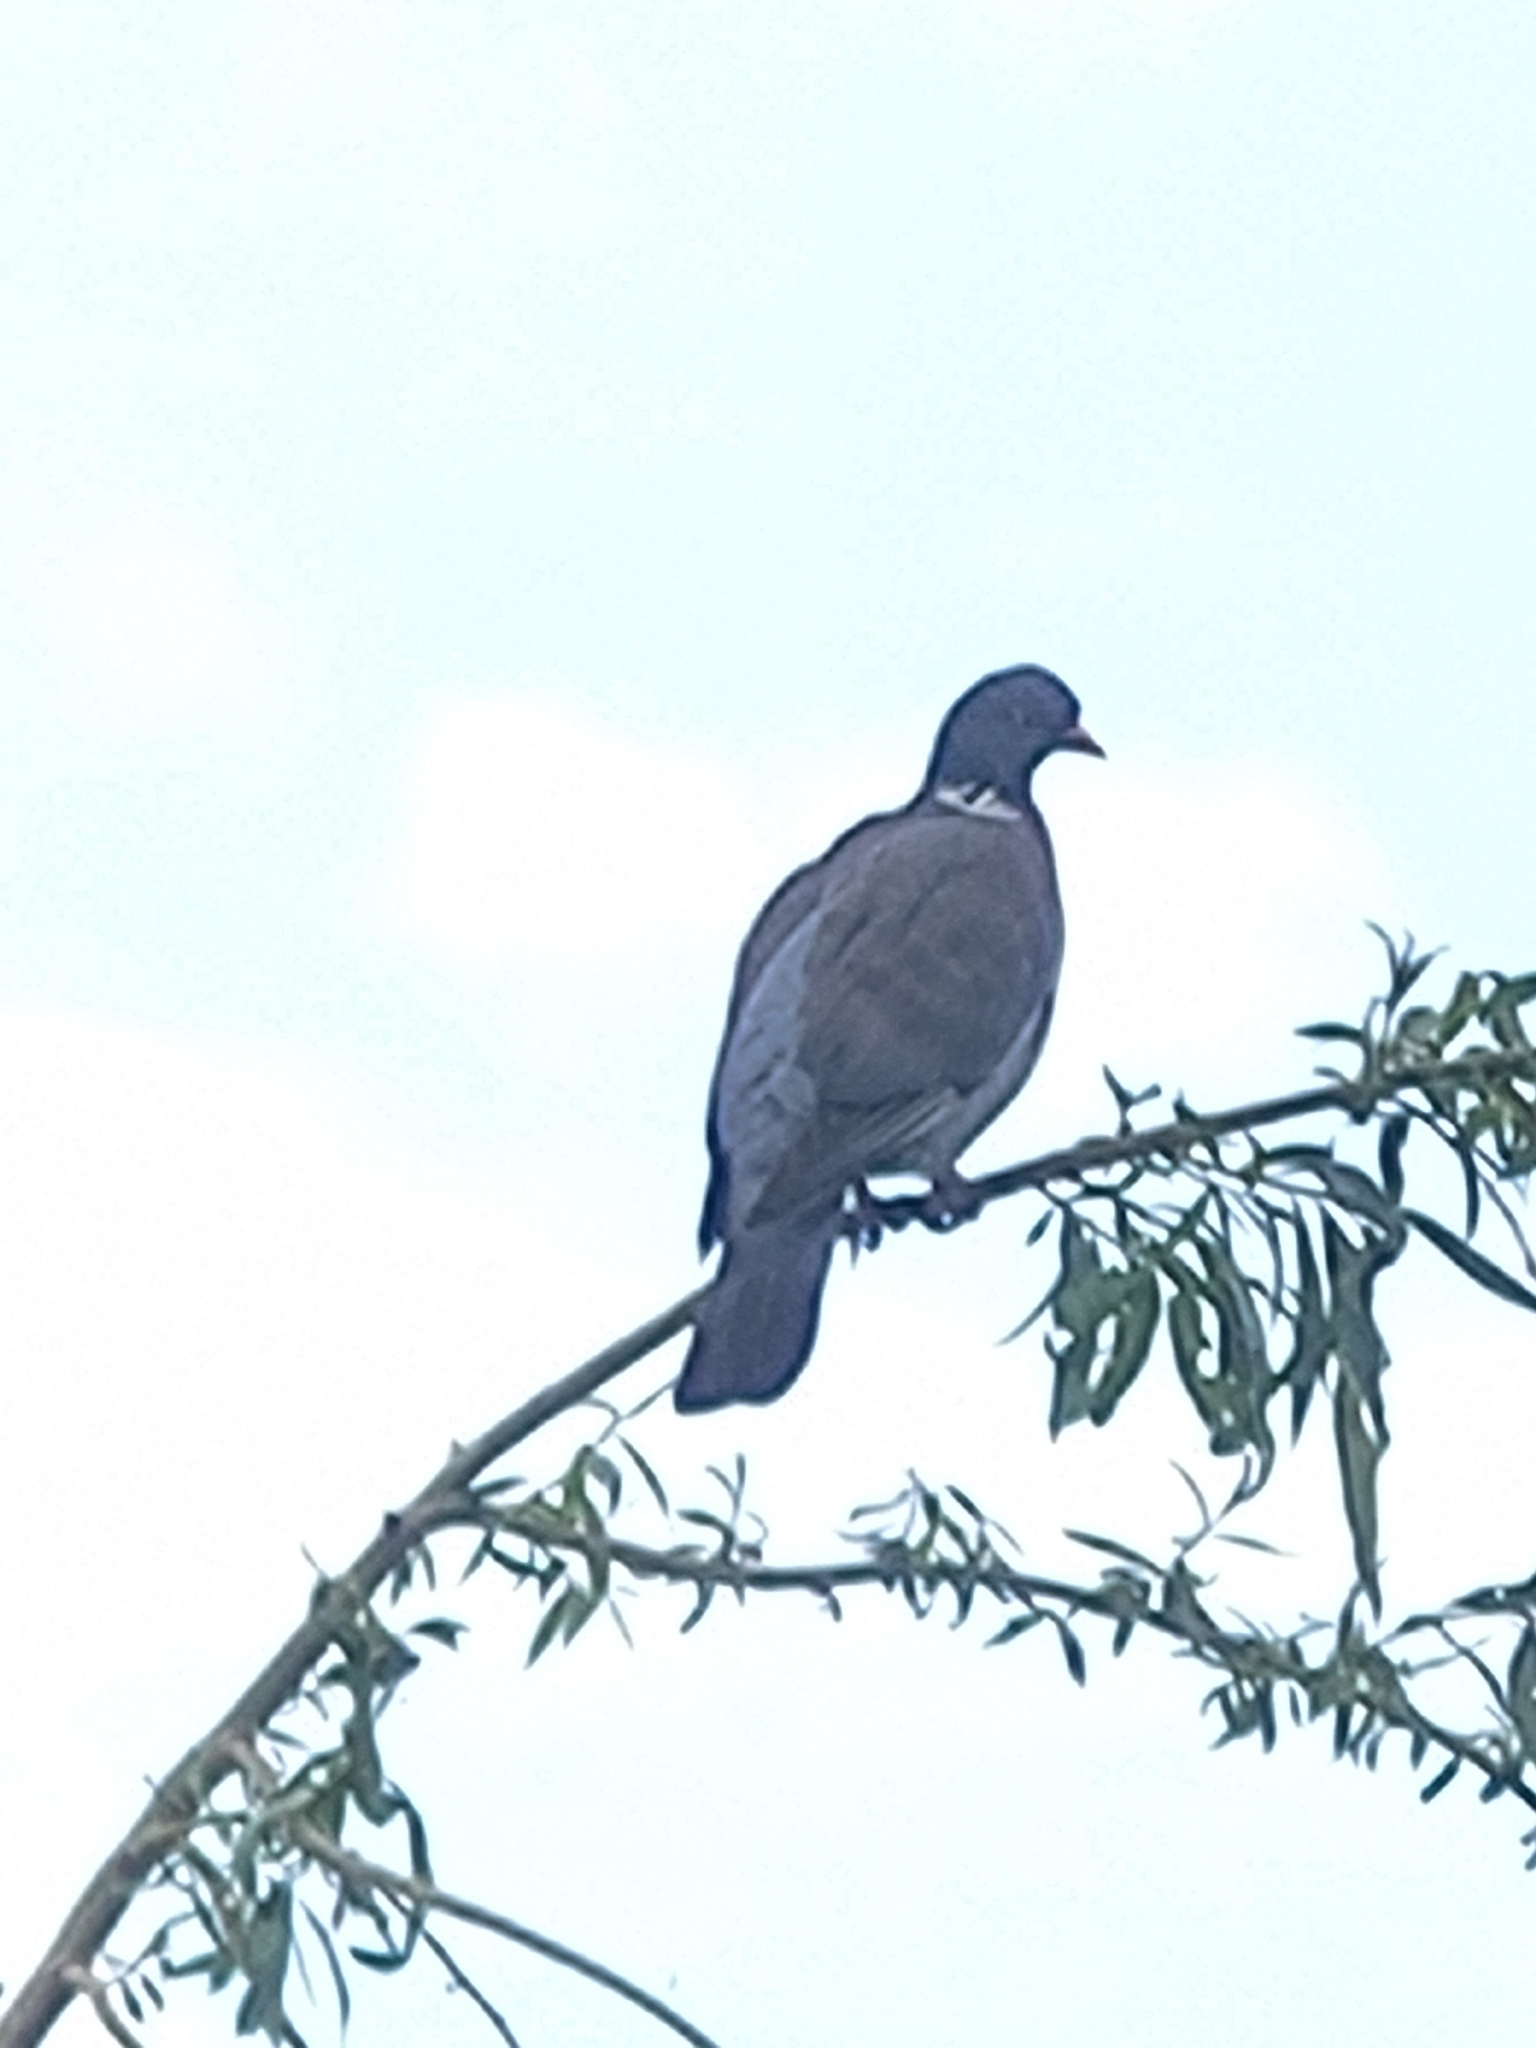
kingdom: Animalia
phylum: Chordata
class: Aves
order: Columbiformes
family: Columbidae
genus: Columba
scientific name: Columba palumbus
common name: Common wood pigeon
